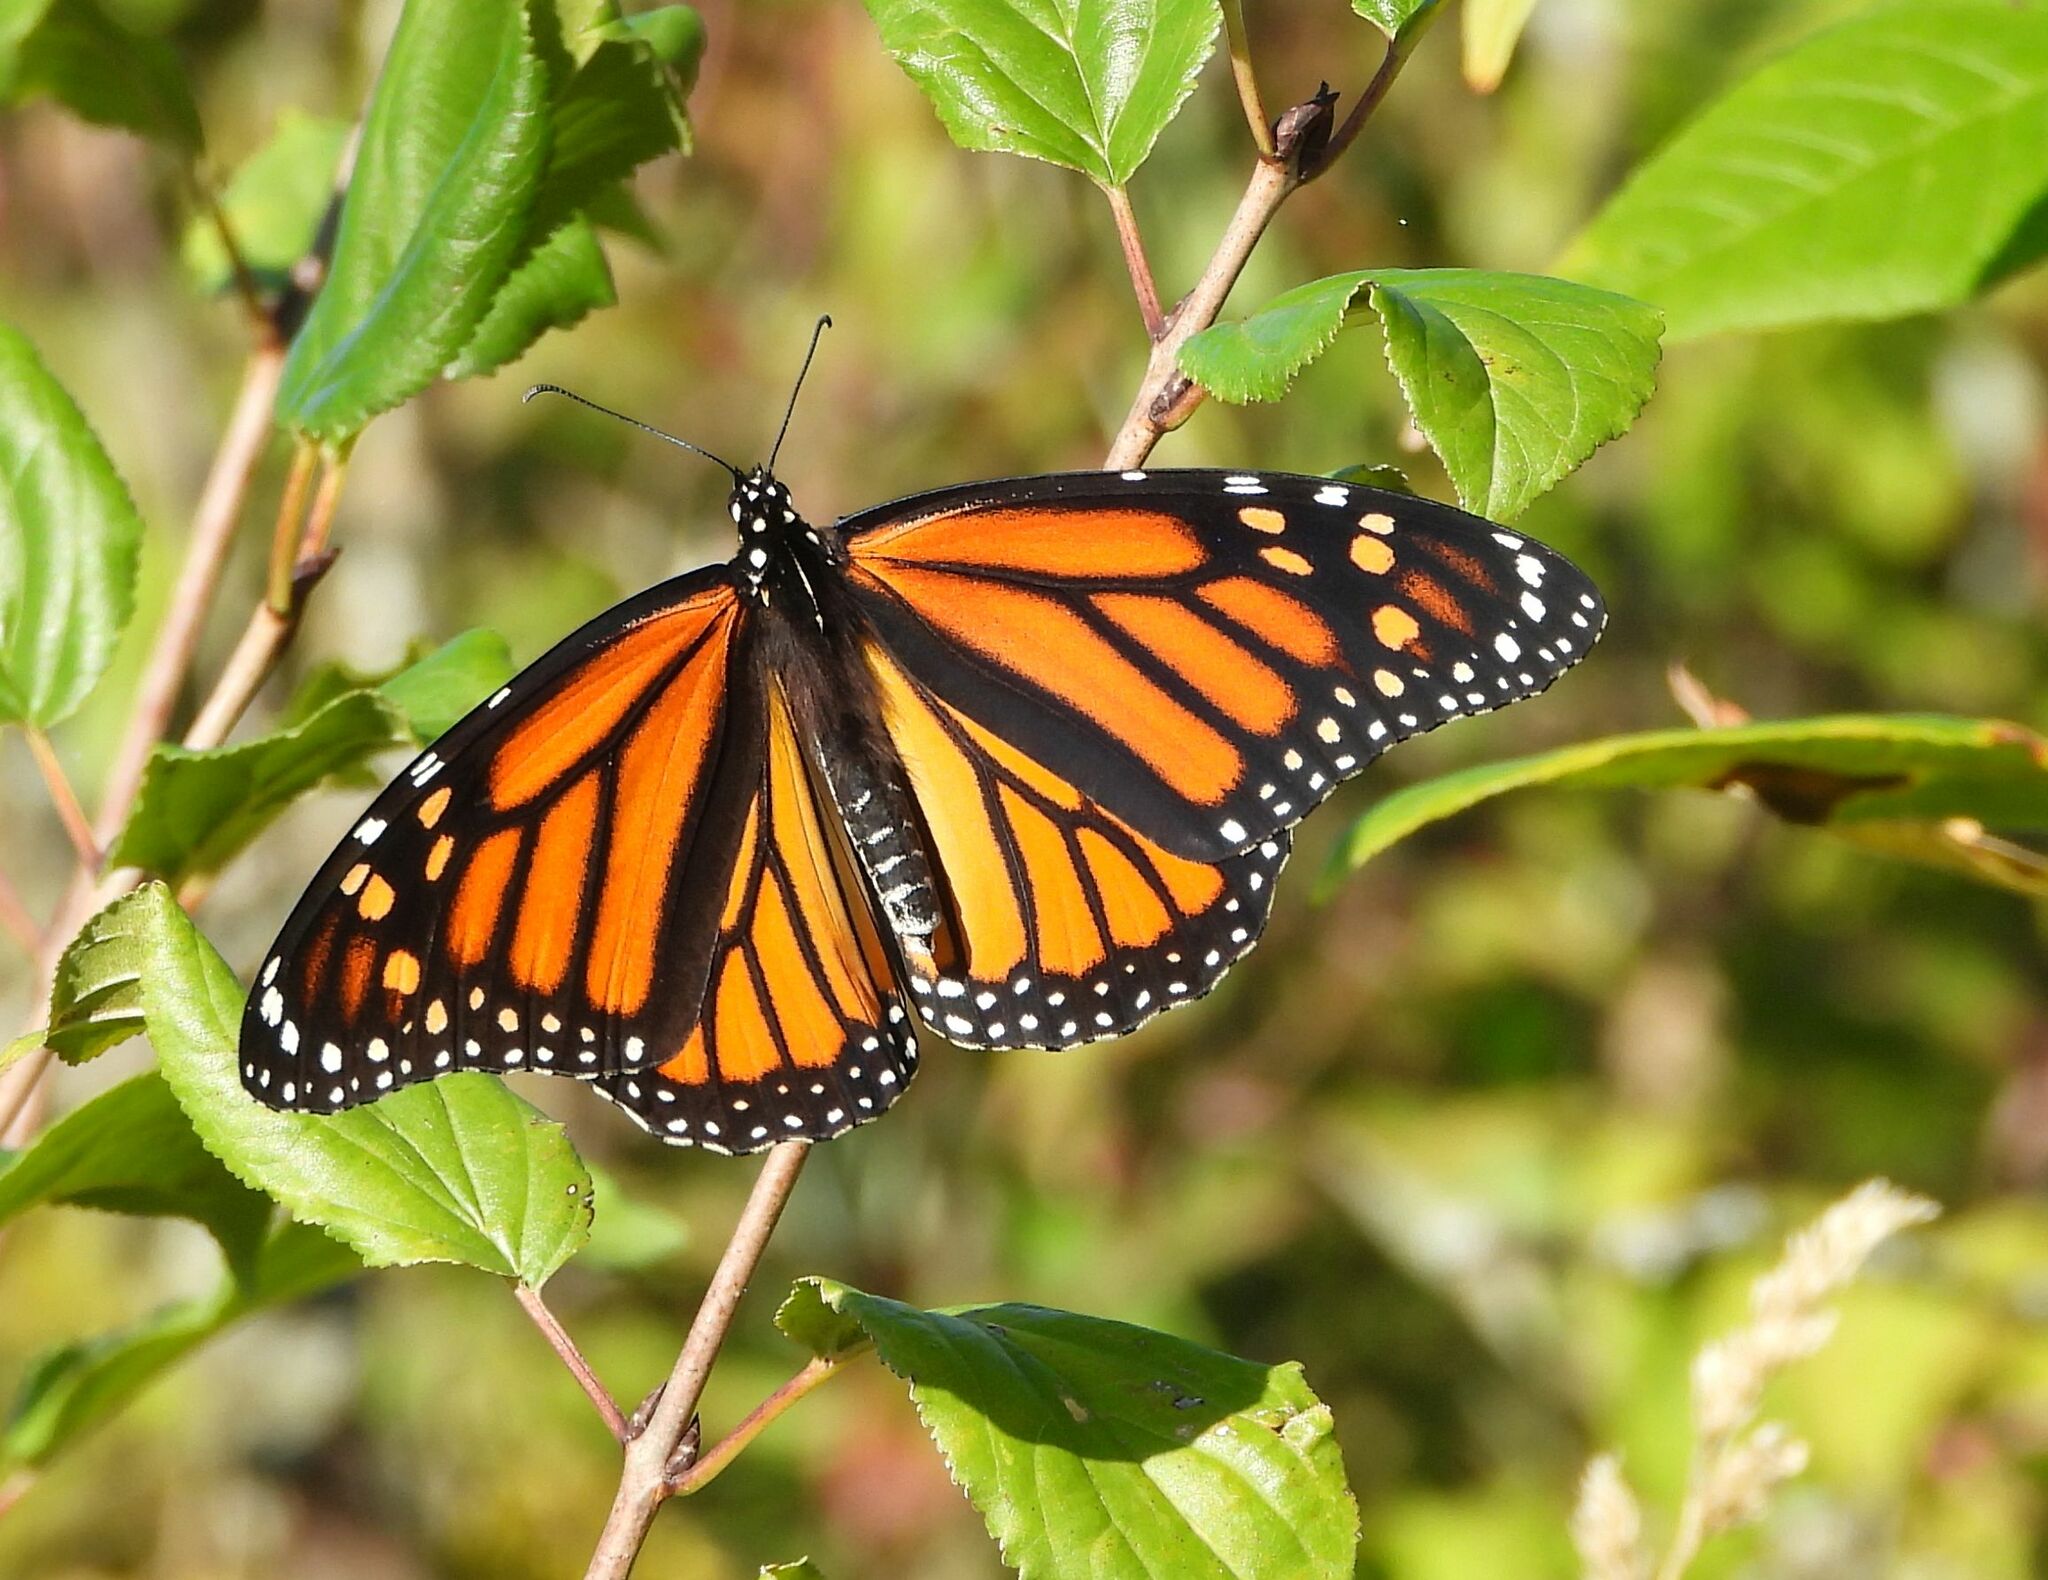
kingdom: Animalia
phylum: Arthropoda
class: Insecta
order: Lepidoptera
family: Nymphalidae
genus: Danaus
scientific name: Danaus plexippus
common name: Monarch
